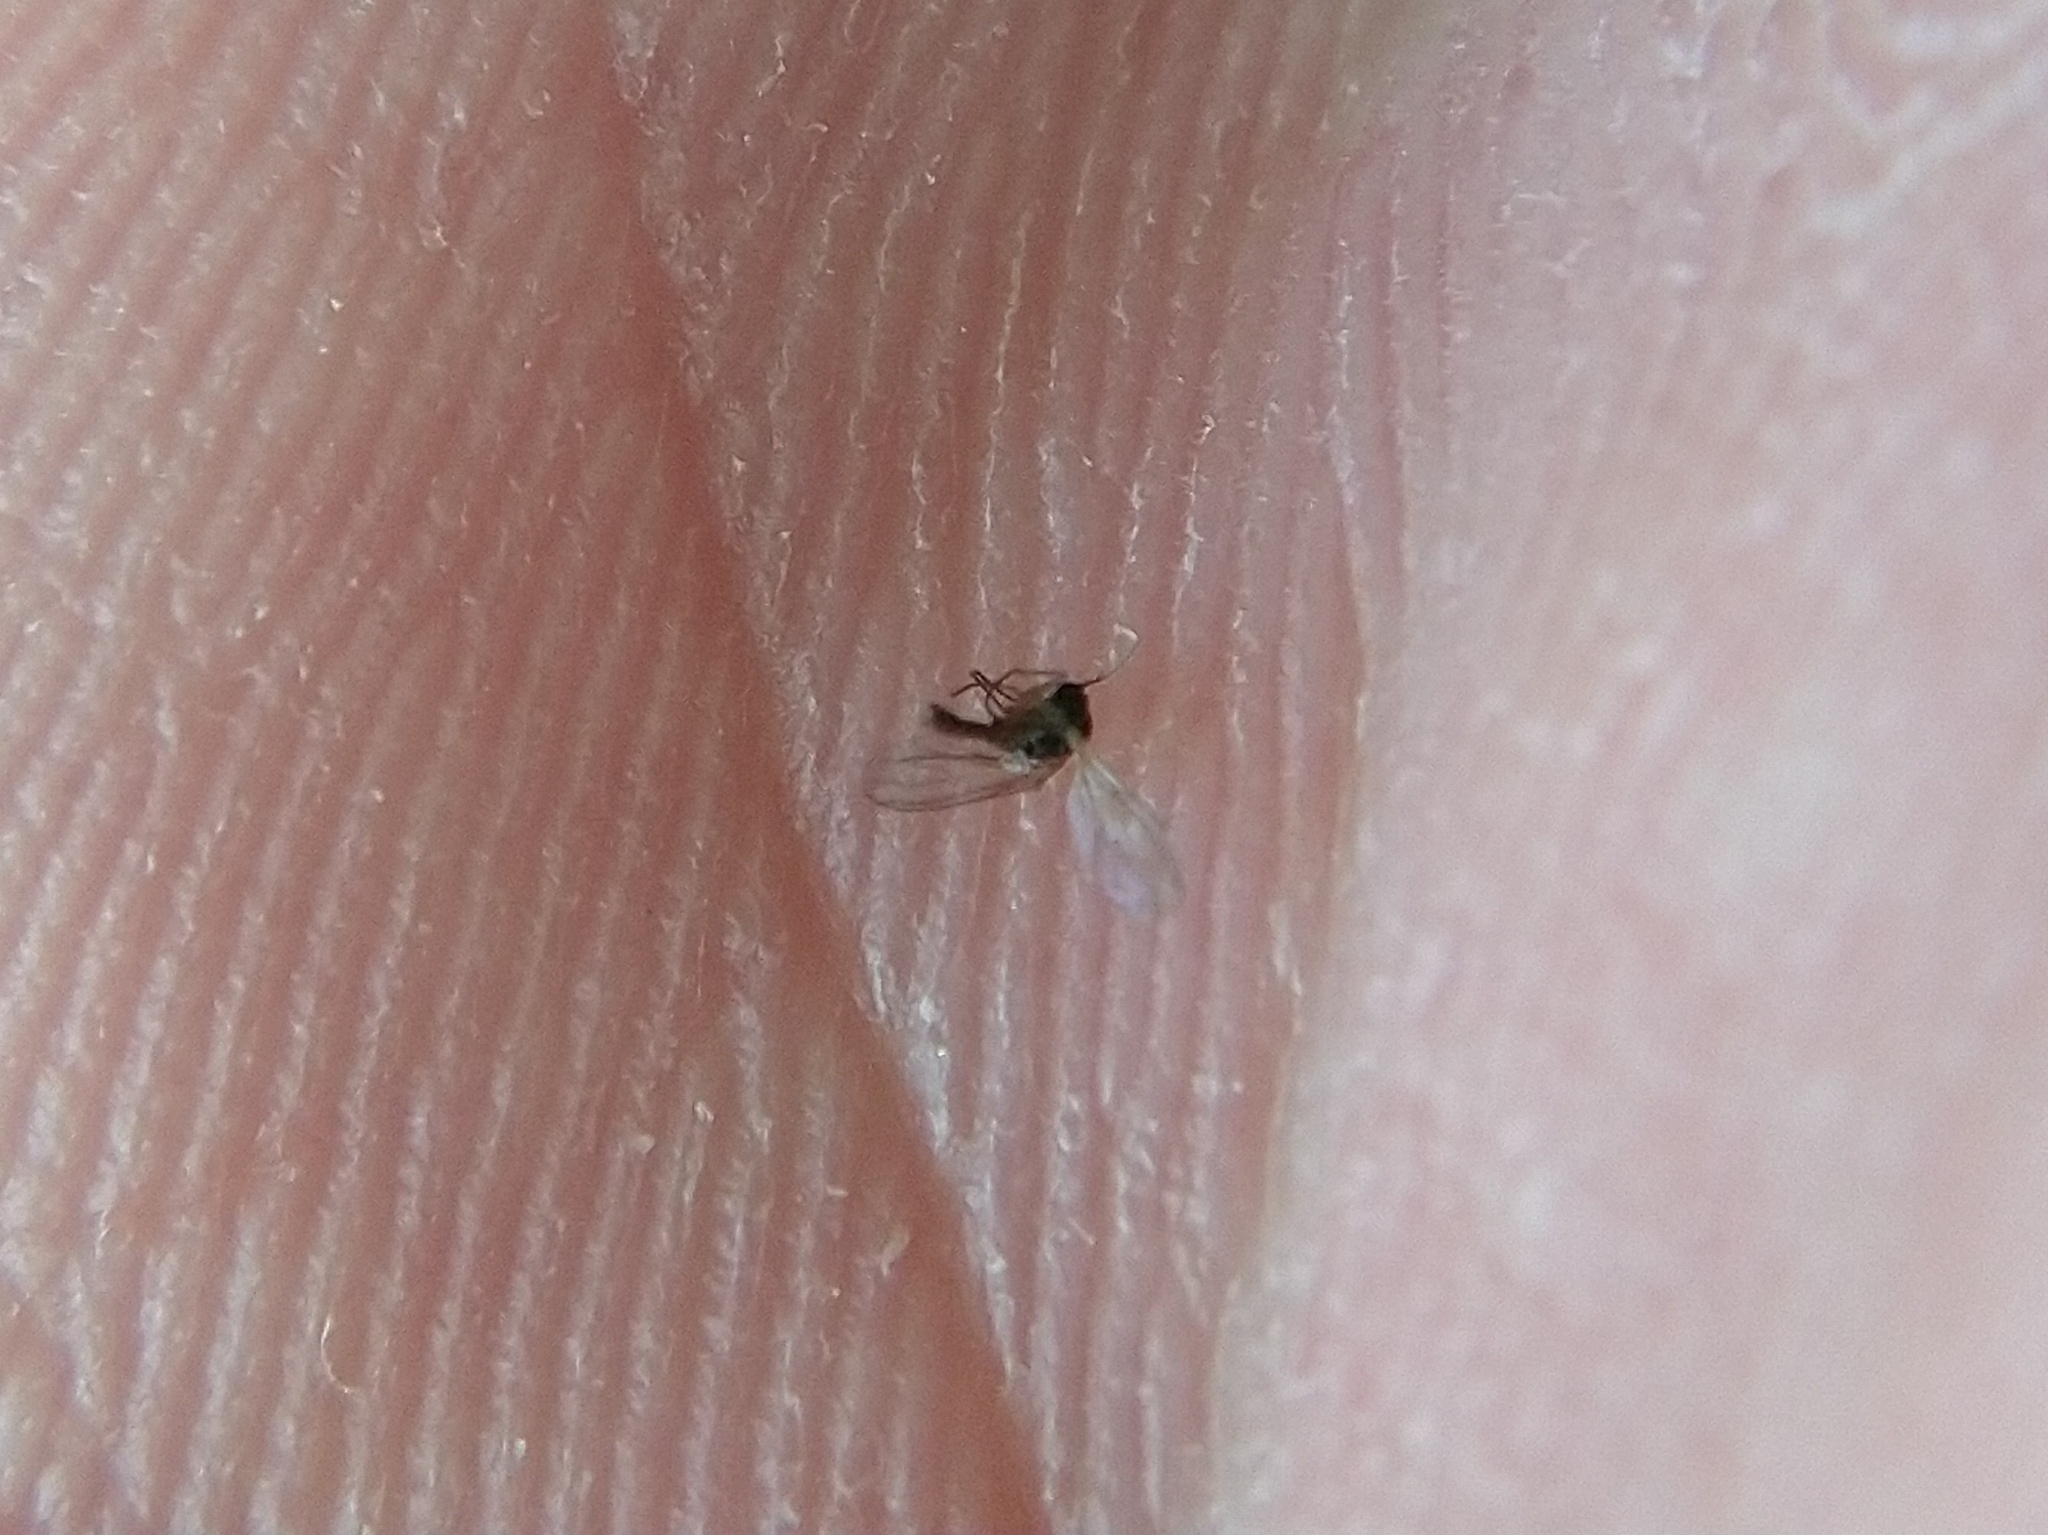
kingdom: Animalia
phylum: Arthropoda
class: Insecta
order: Hymenoptera
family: Cynipidae
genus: Cynips
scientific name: Cynips douglasi
